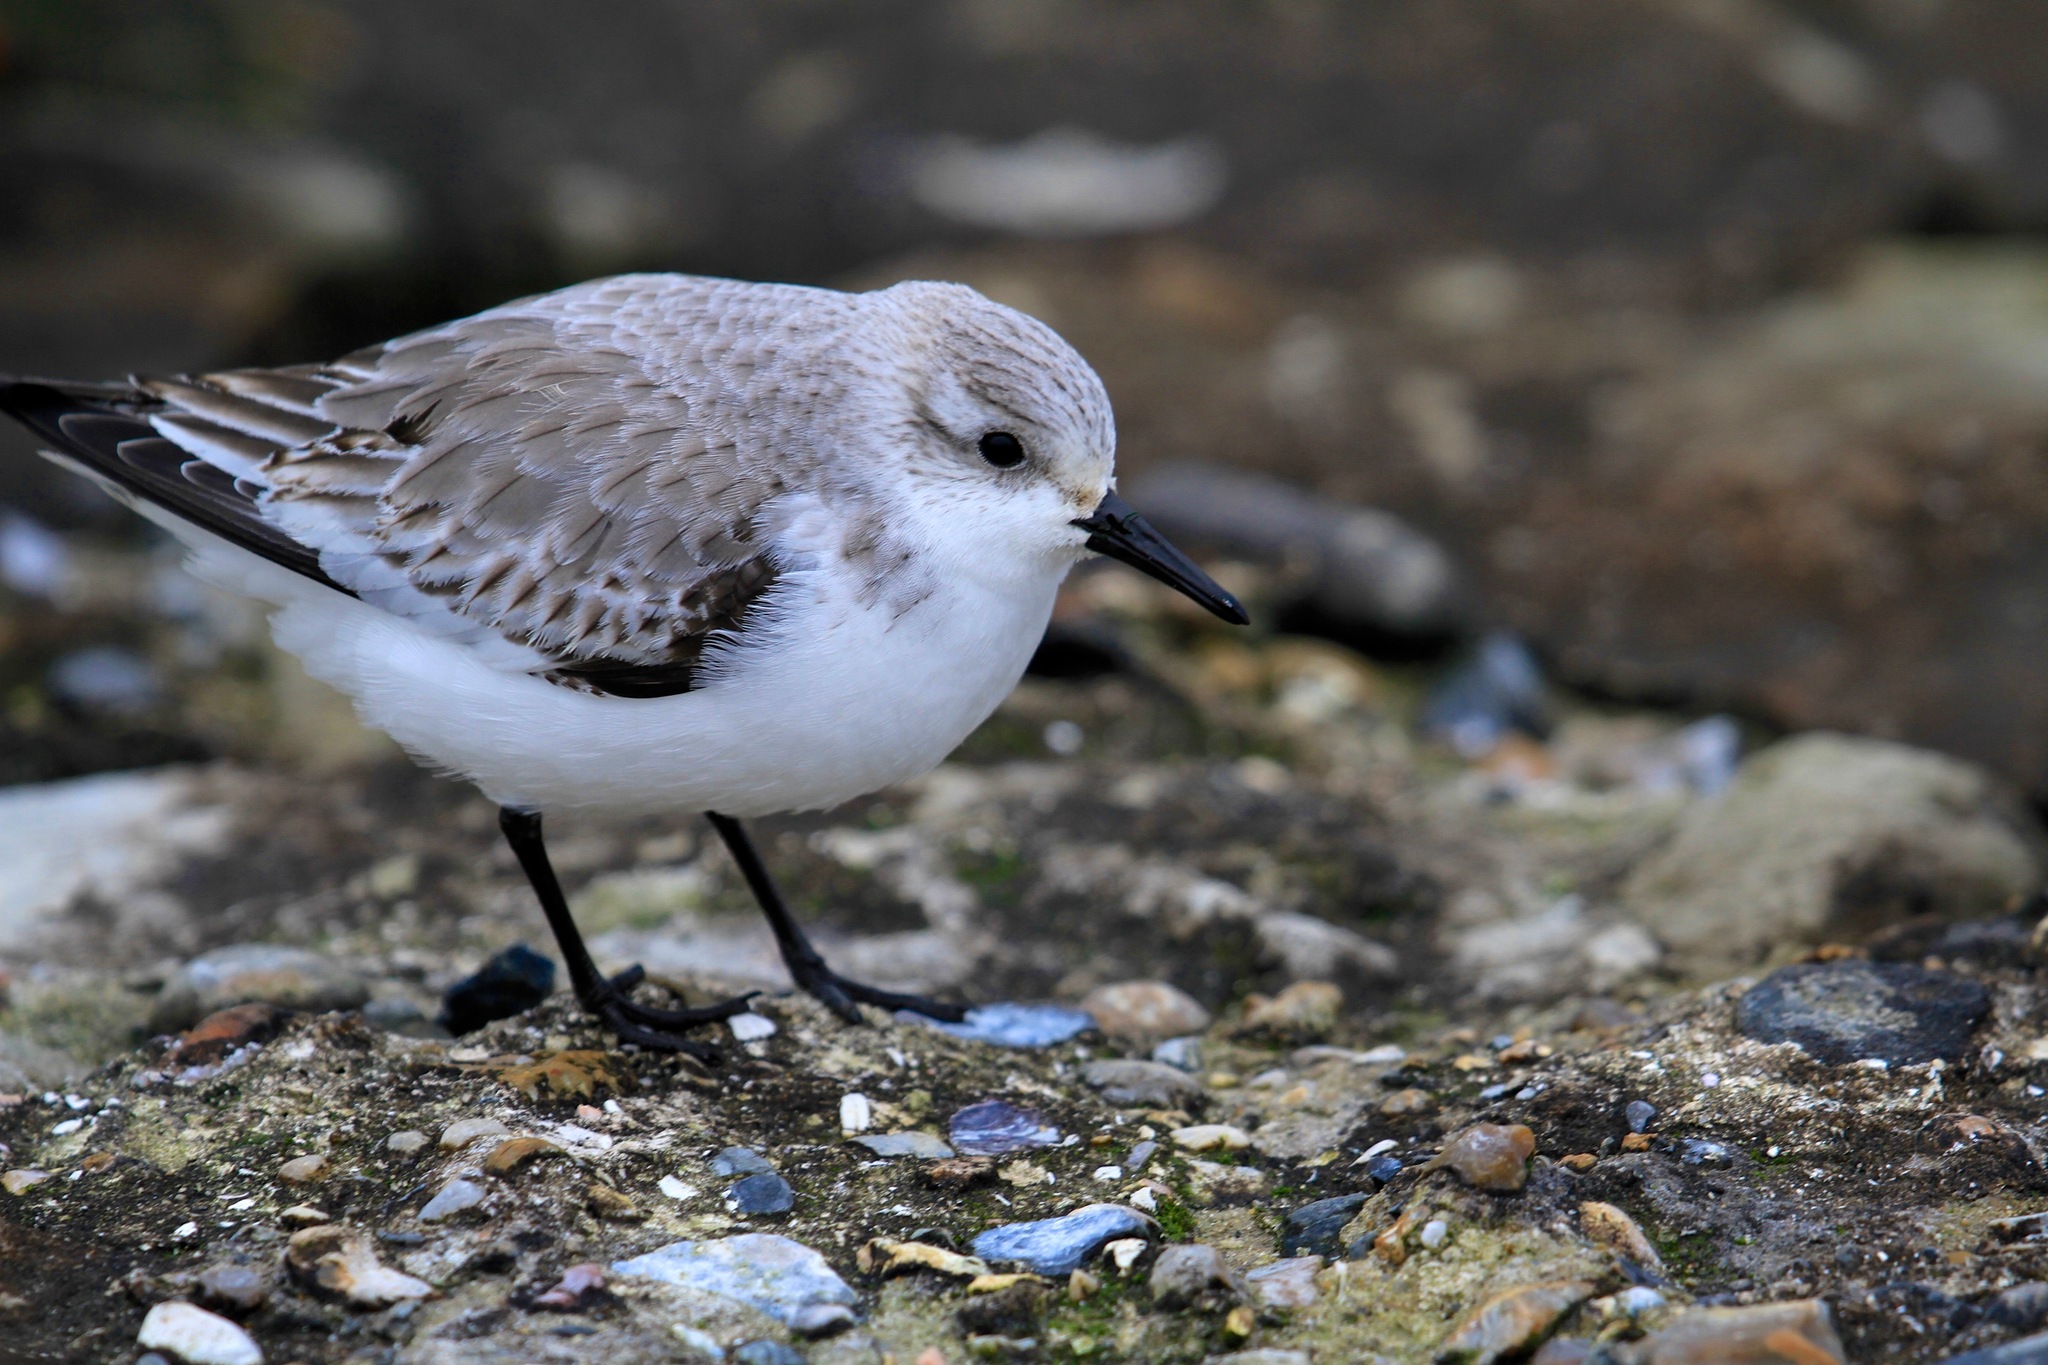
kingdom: Animalia
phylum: Chordata
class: Aves
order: Charadriiformes
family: Scolopacidae
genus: Calidris
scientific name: Calidris alba
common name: Sanderling
